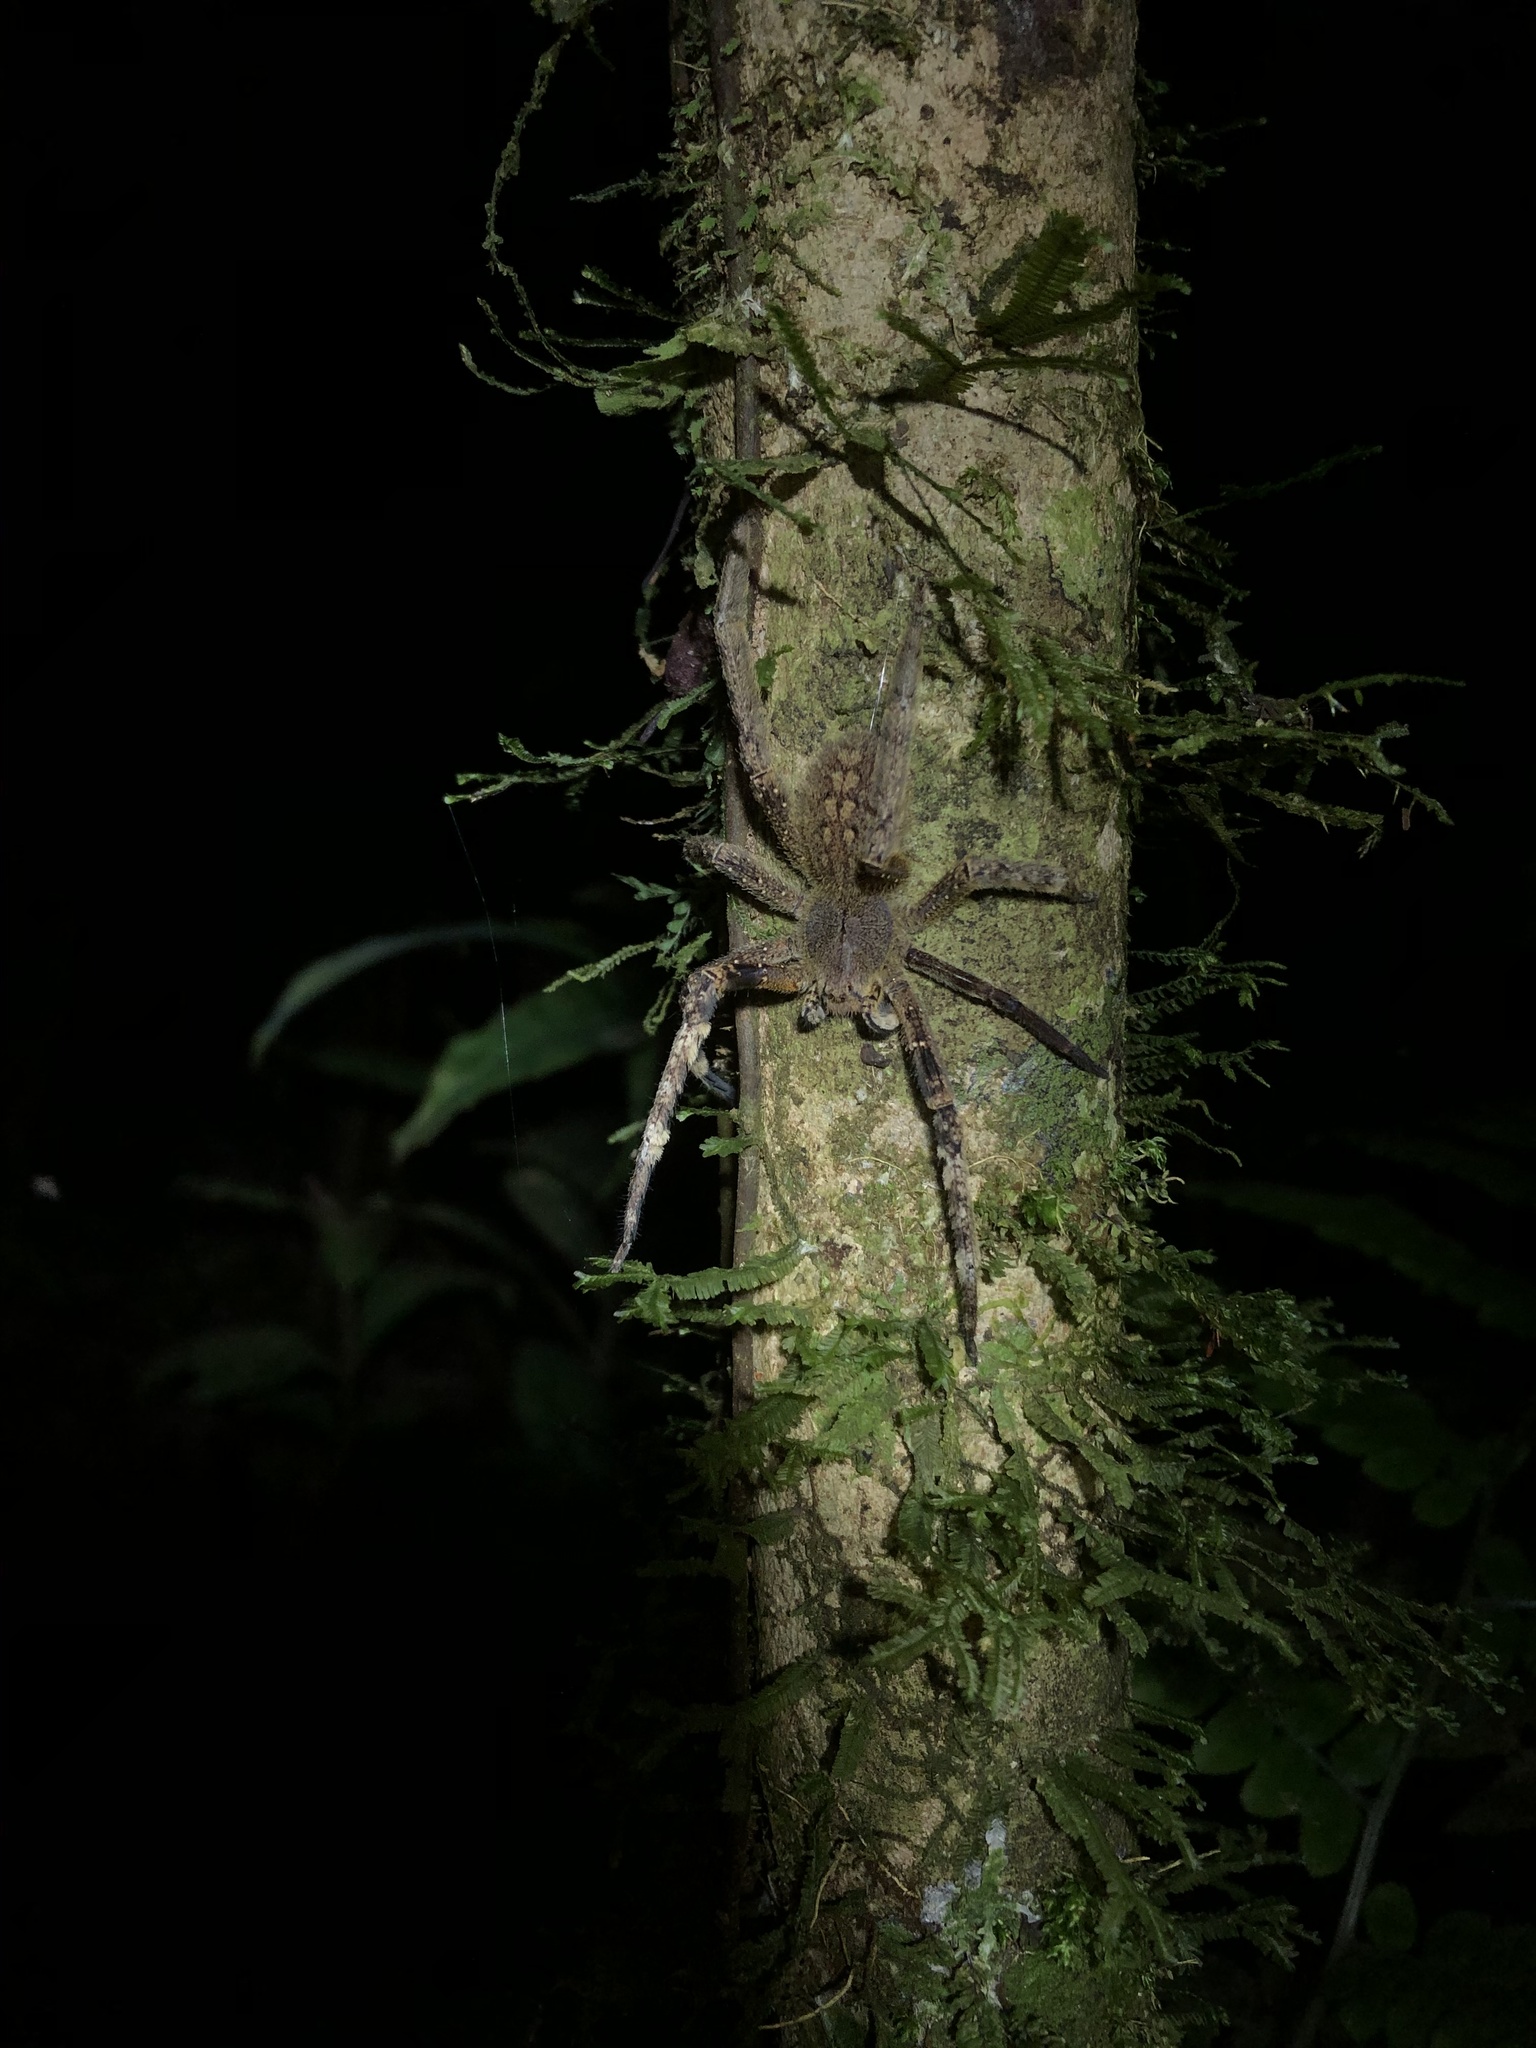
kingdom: Animalia
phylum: Arthropoda
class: Arachnida
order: Araneae
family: Ctenidae
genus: Phoneutria
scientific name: Phoneutria fera
